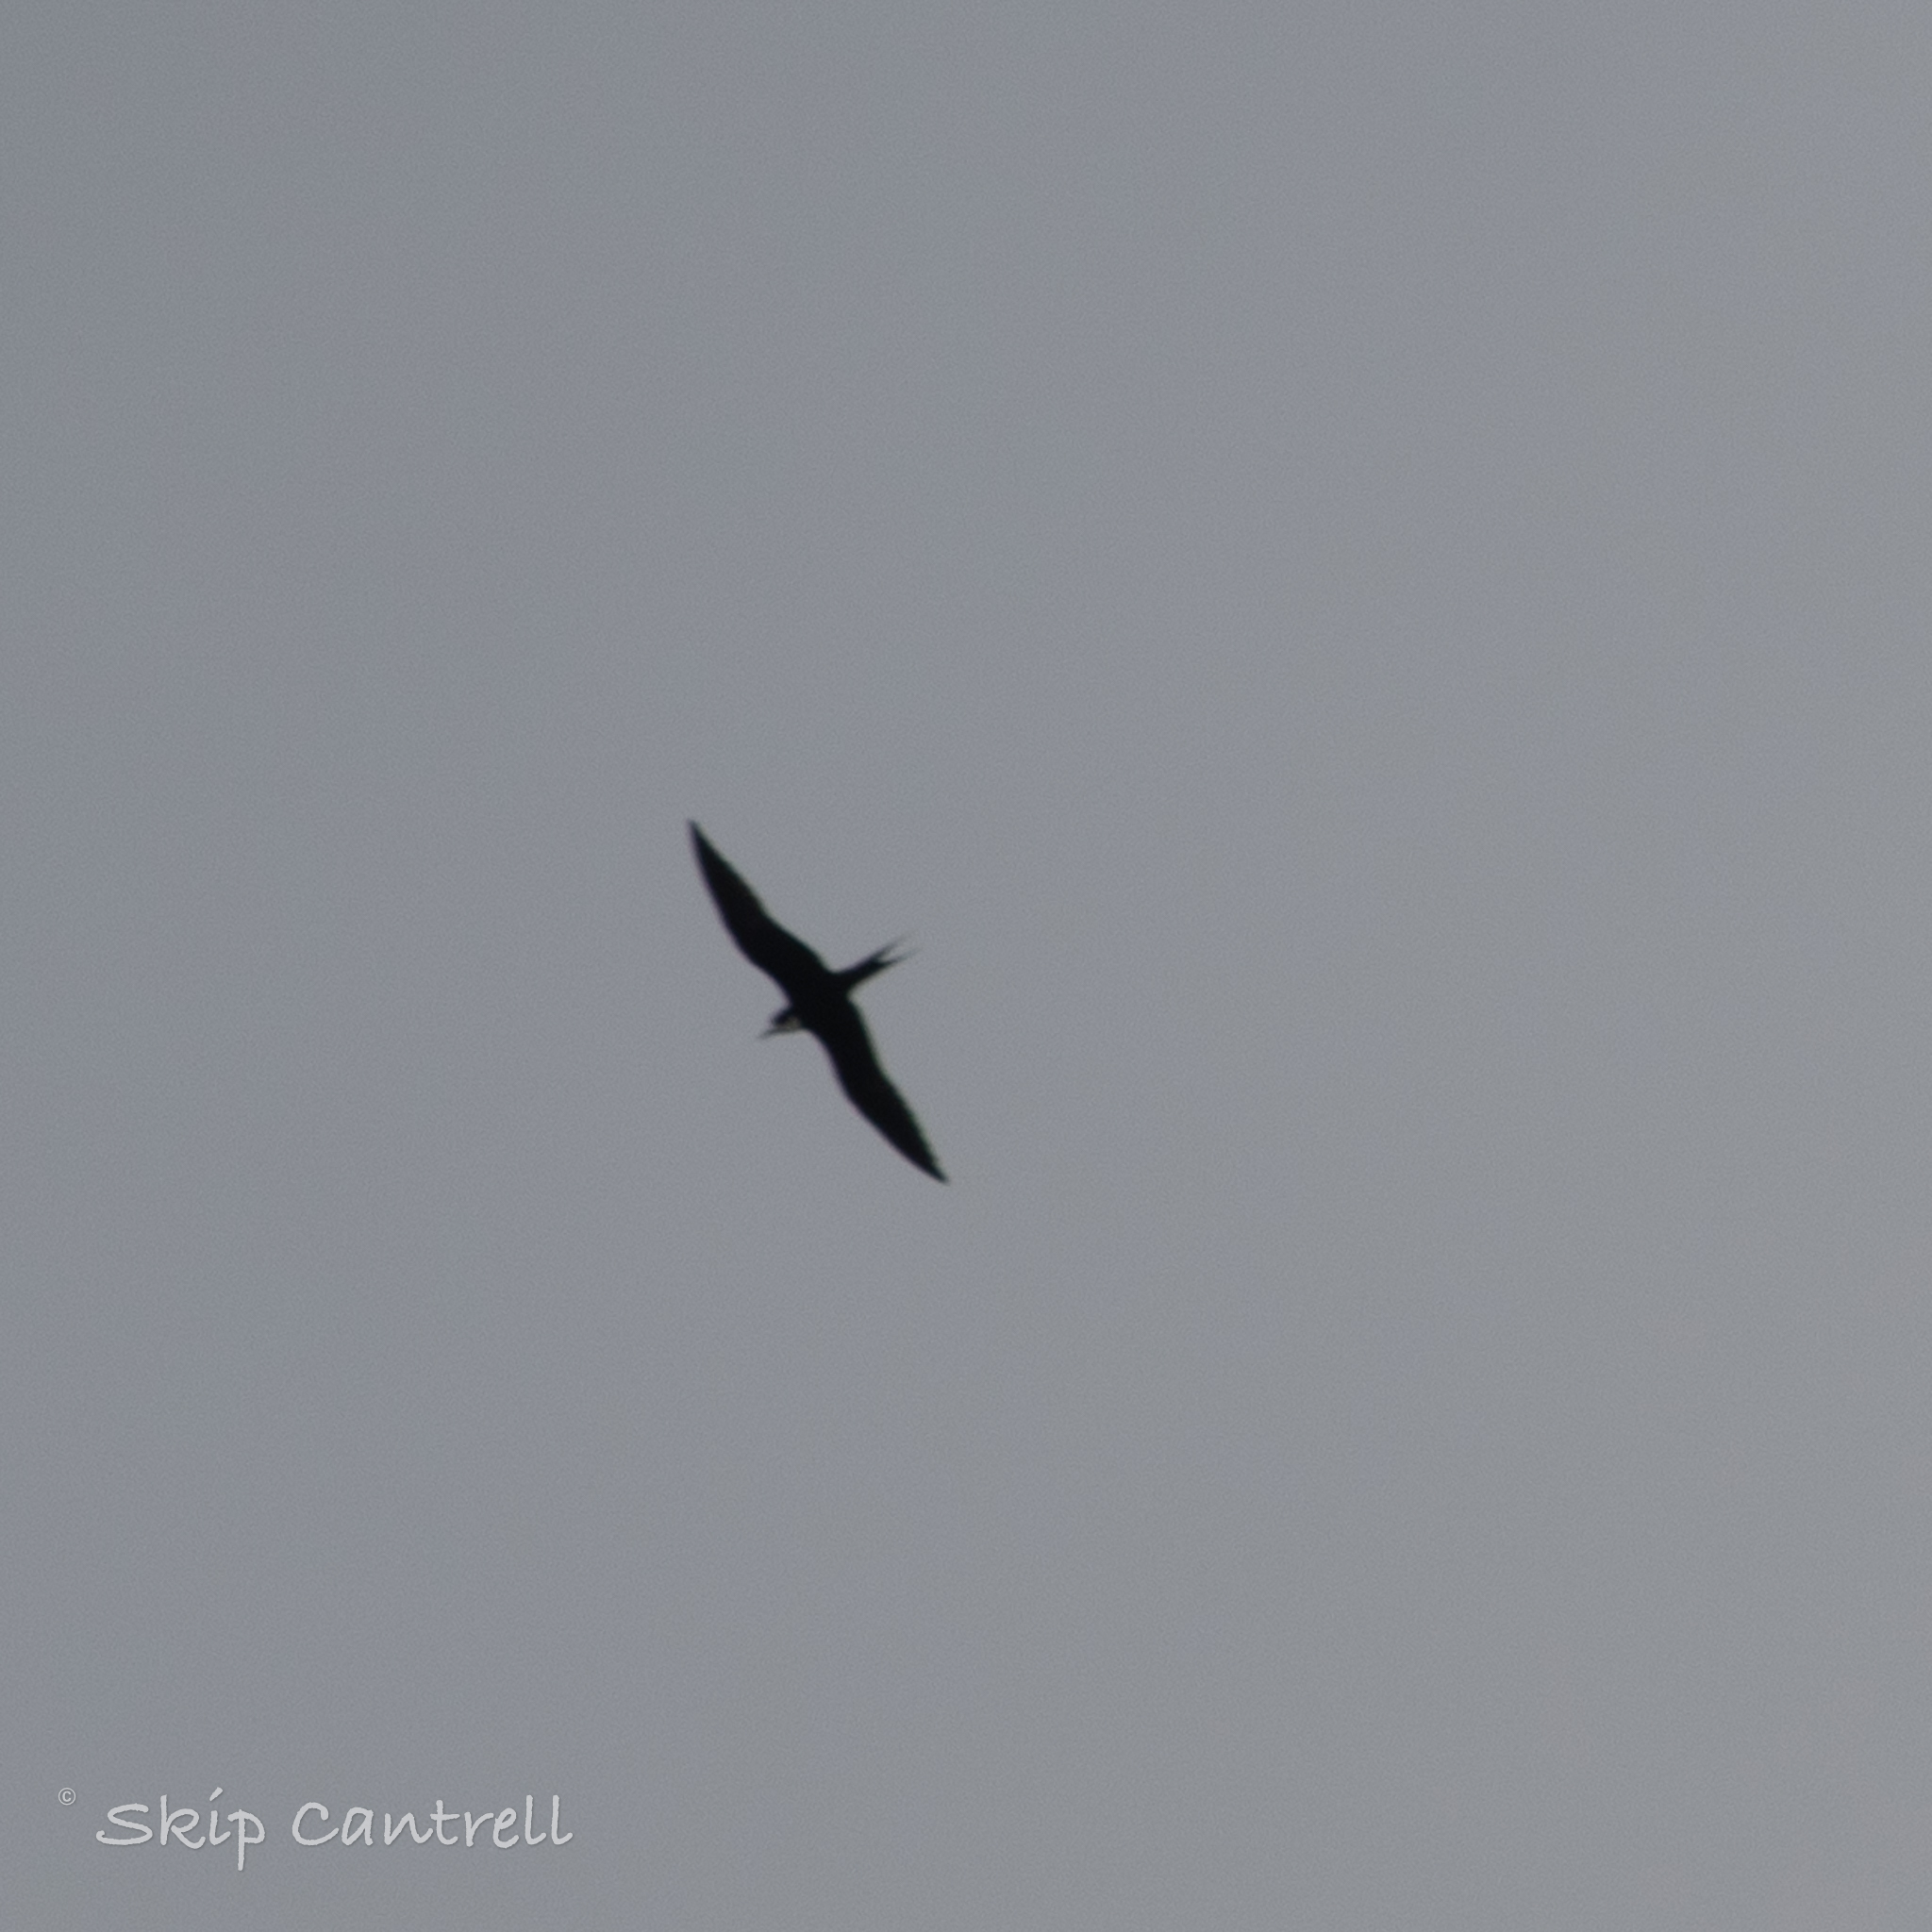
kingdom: Animalia
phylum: Chordata
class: Aves
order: Charadriiformes
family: Laridae
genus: Onychoprion
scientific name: Onychoprion fuscatus
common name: Sooty tern
